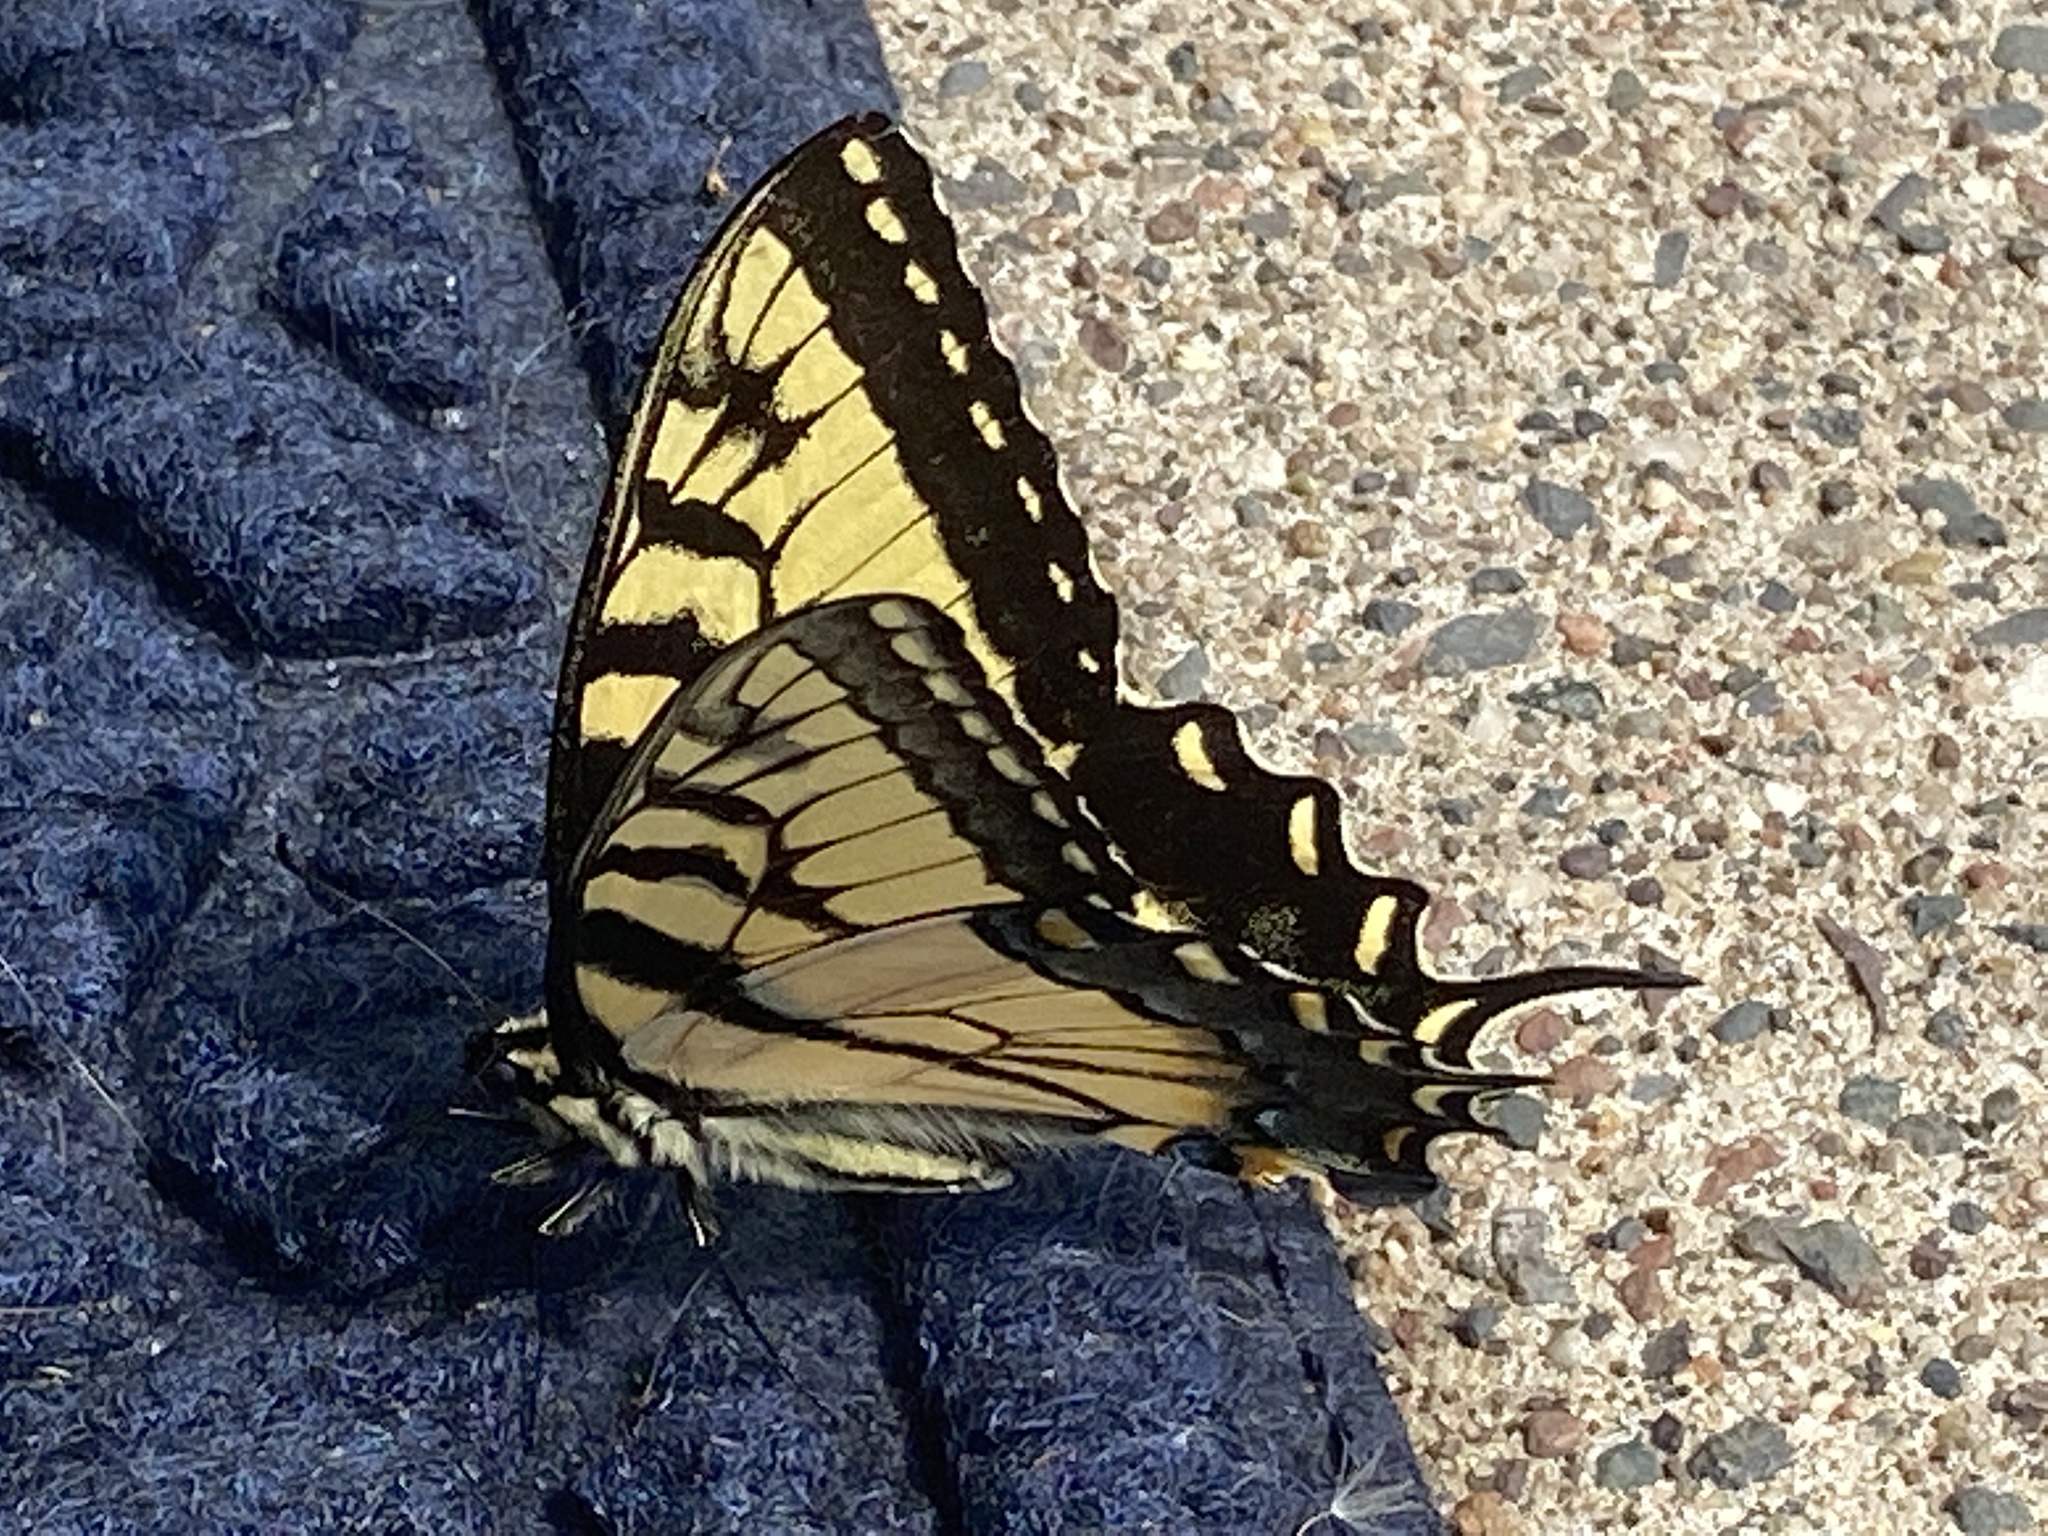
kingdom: Animalia
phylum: Arthropoda
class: Insecta
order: Lepidoptera
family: Papilionidae
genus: Papilio
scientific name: Papilio glaucus
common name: Tiger swallowtail
